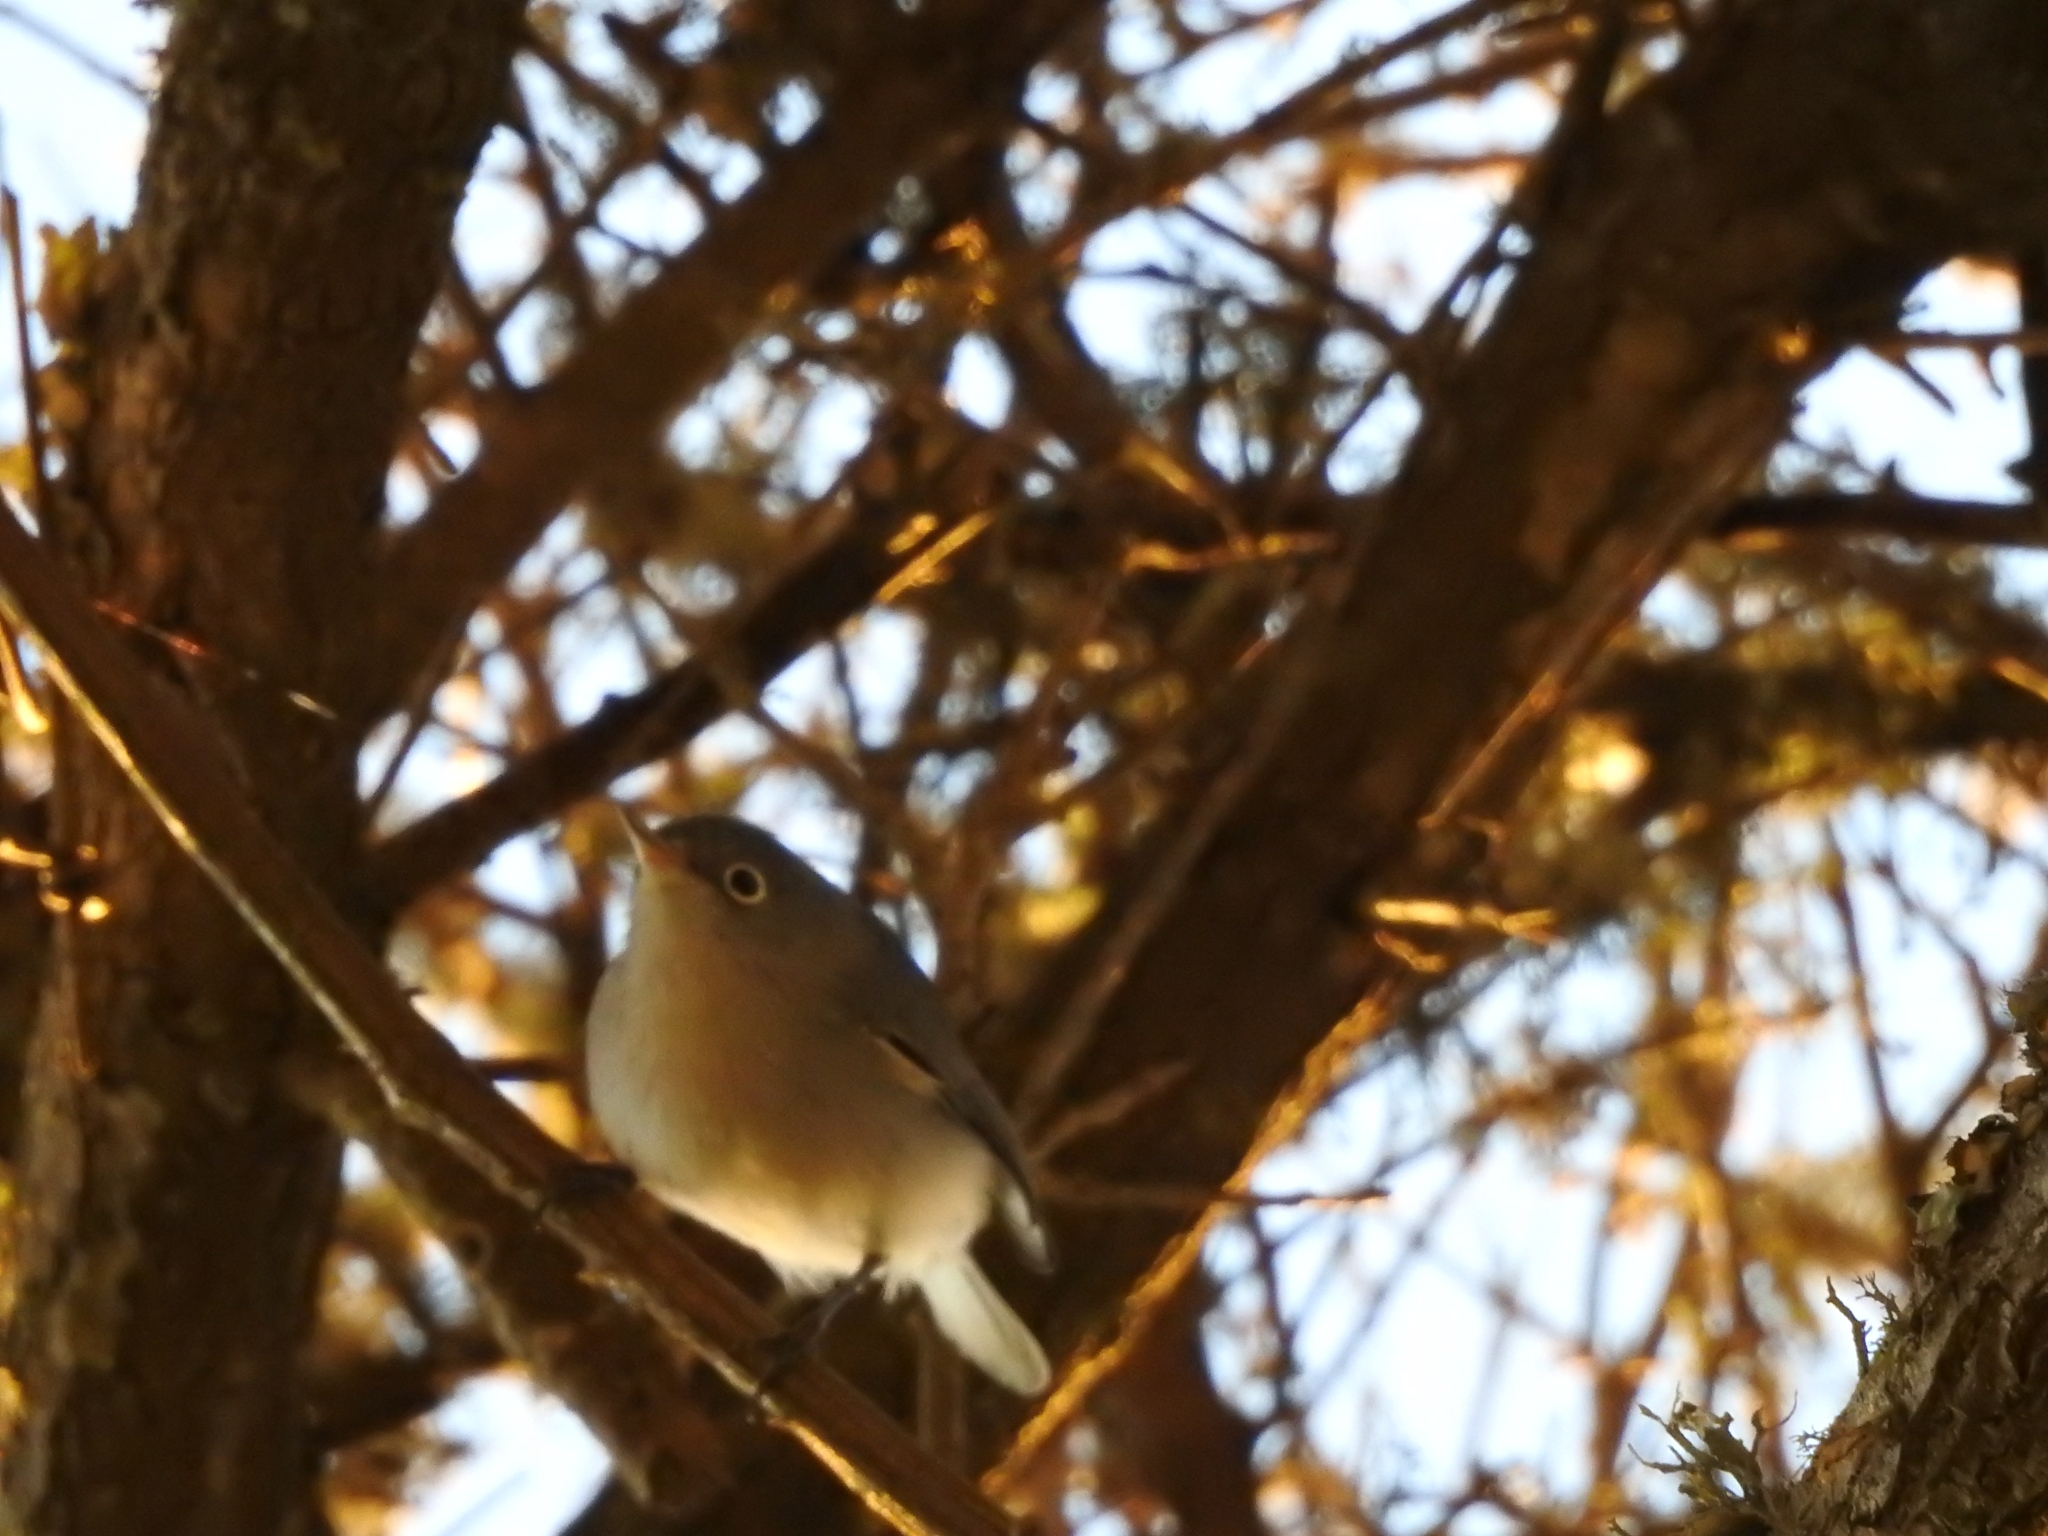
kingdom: Animalia
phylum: Chordata
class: Aves
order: Passeriformes
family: Polioptilidae
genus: Polioptila
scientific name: Polioptila caerulea
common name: Blue-gray gnatcatcher
